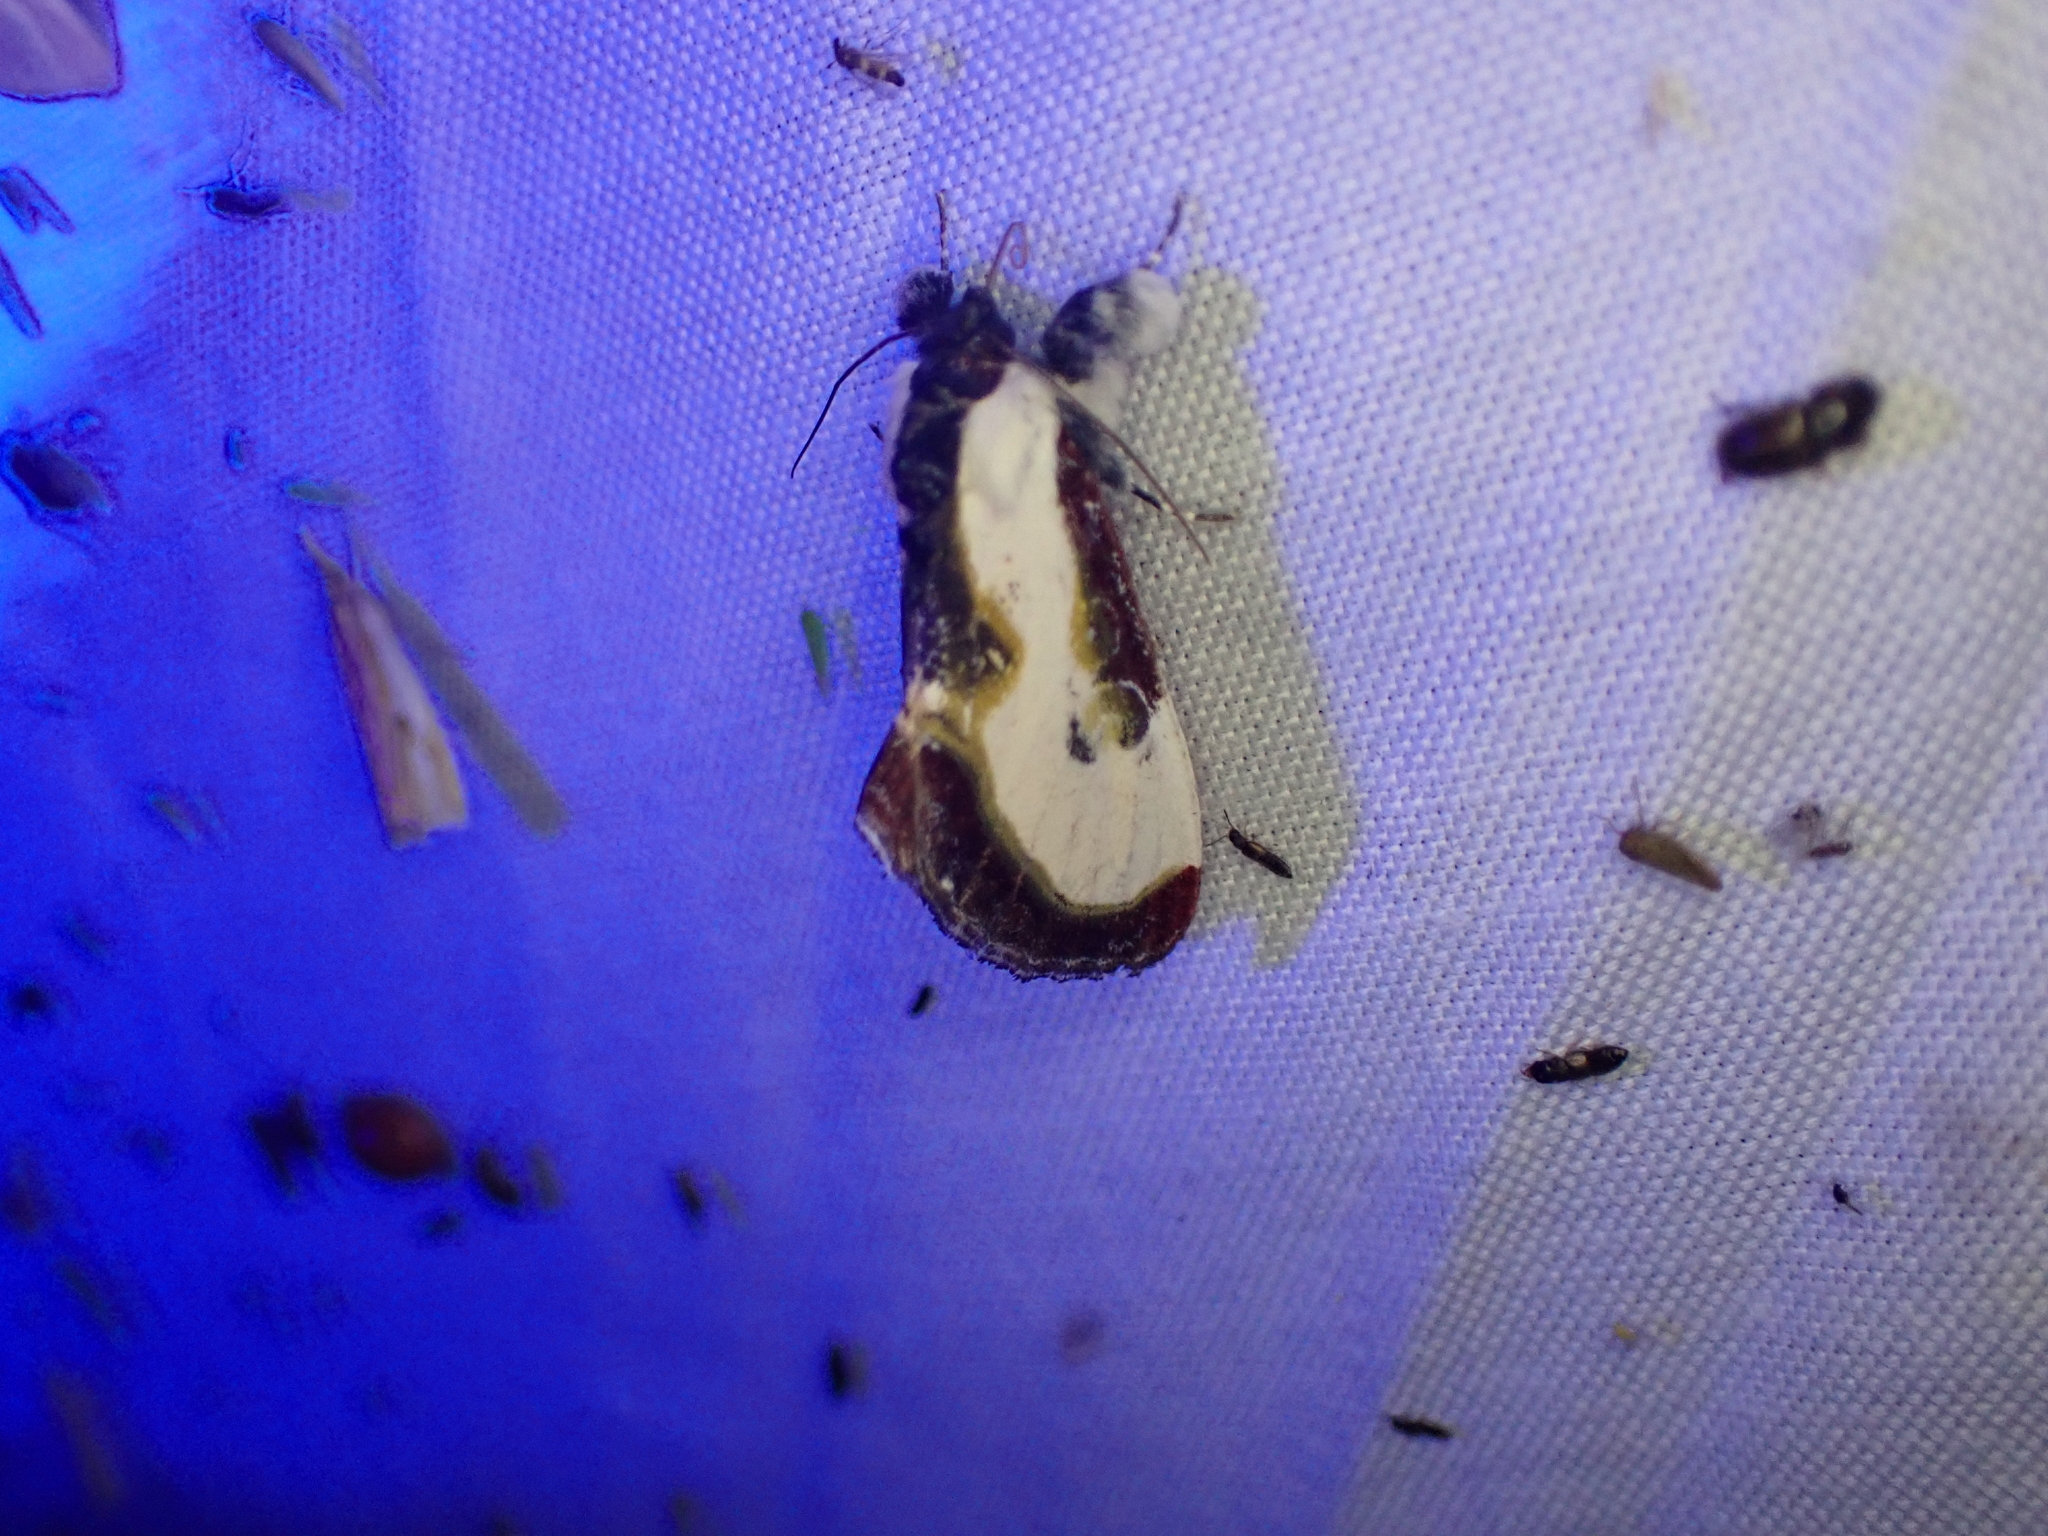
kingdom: Animalia
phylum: Arthropoda
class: Insecta
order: Lepidoptera
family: Noctuidae
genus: Eudryas
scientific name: Eudryas grata
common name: Beautiful wood-nymph
